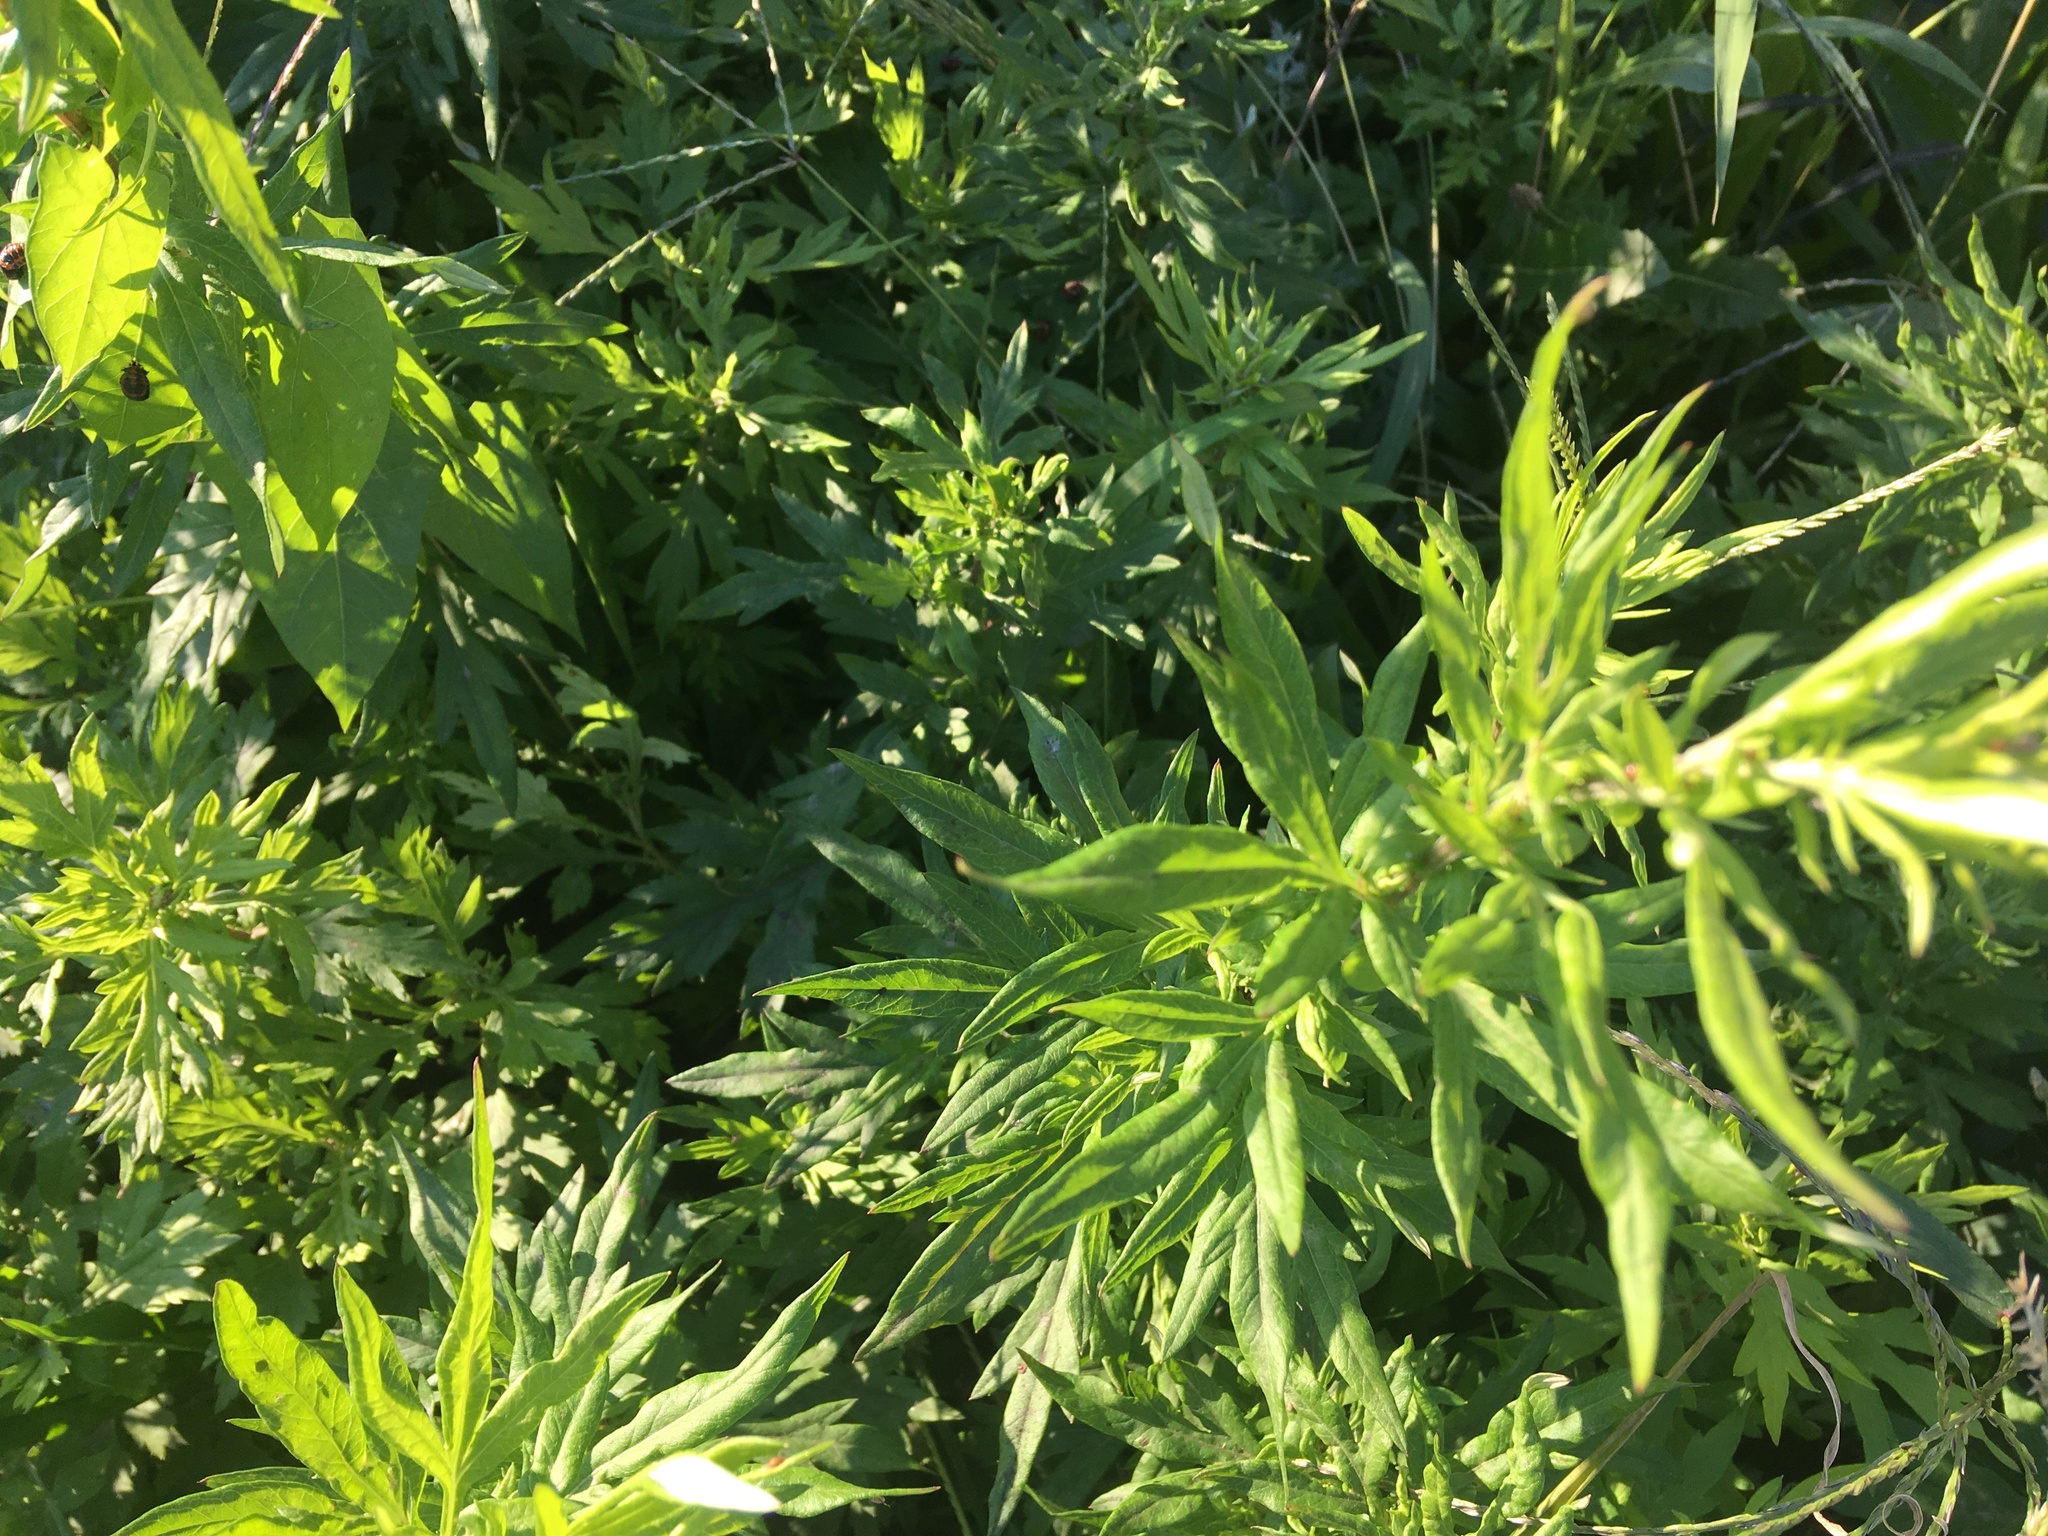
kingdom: Plantae
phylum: Tracheophyta
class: Magnoliopsida
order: Asterales
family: Asteraceae
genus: Artemisia
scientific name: Artemisia vulgaris
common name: Mugwort
